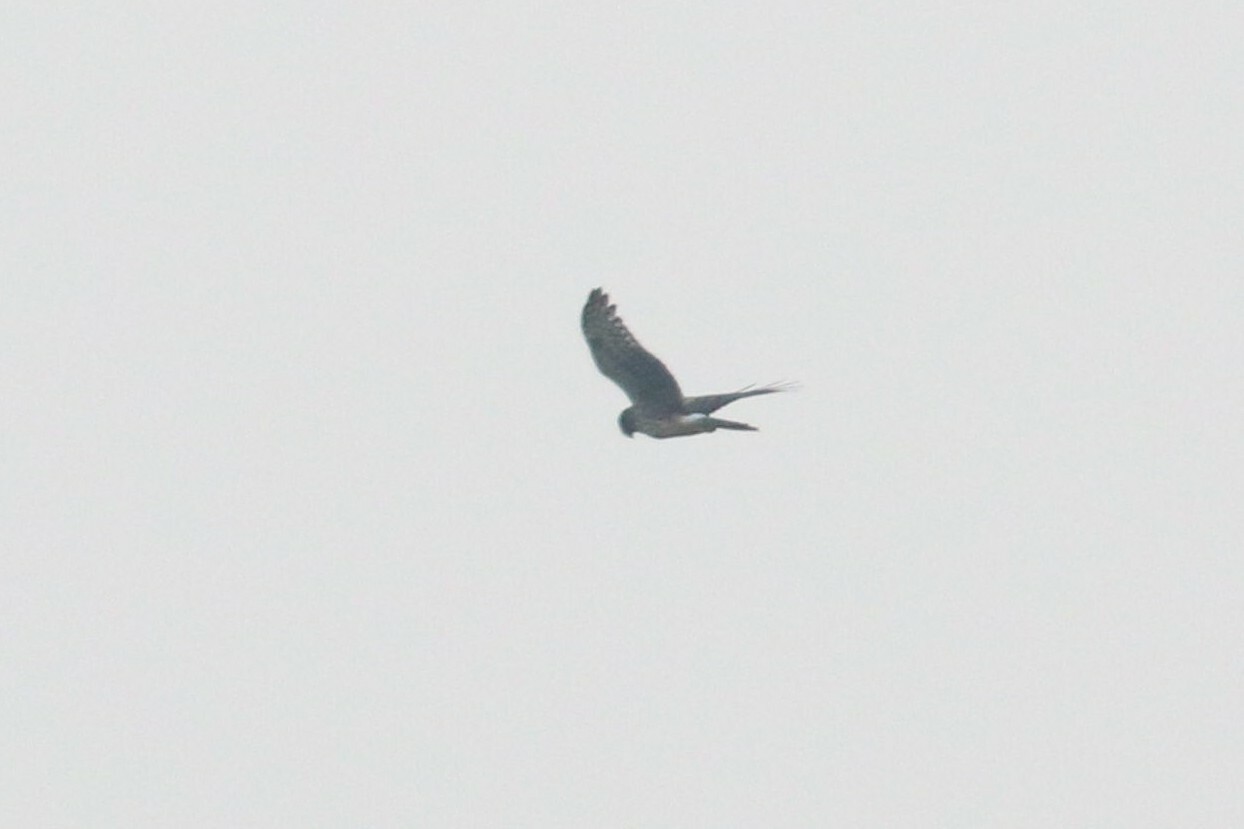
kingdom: Animalia
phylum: Chordata
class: Aves
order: Accipitriformes
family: Accipitridae
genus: Circus
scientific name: Circus cyaneus
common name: Hen harrier
